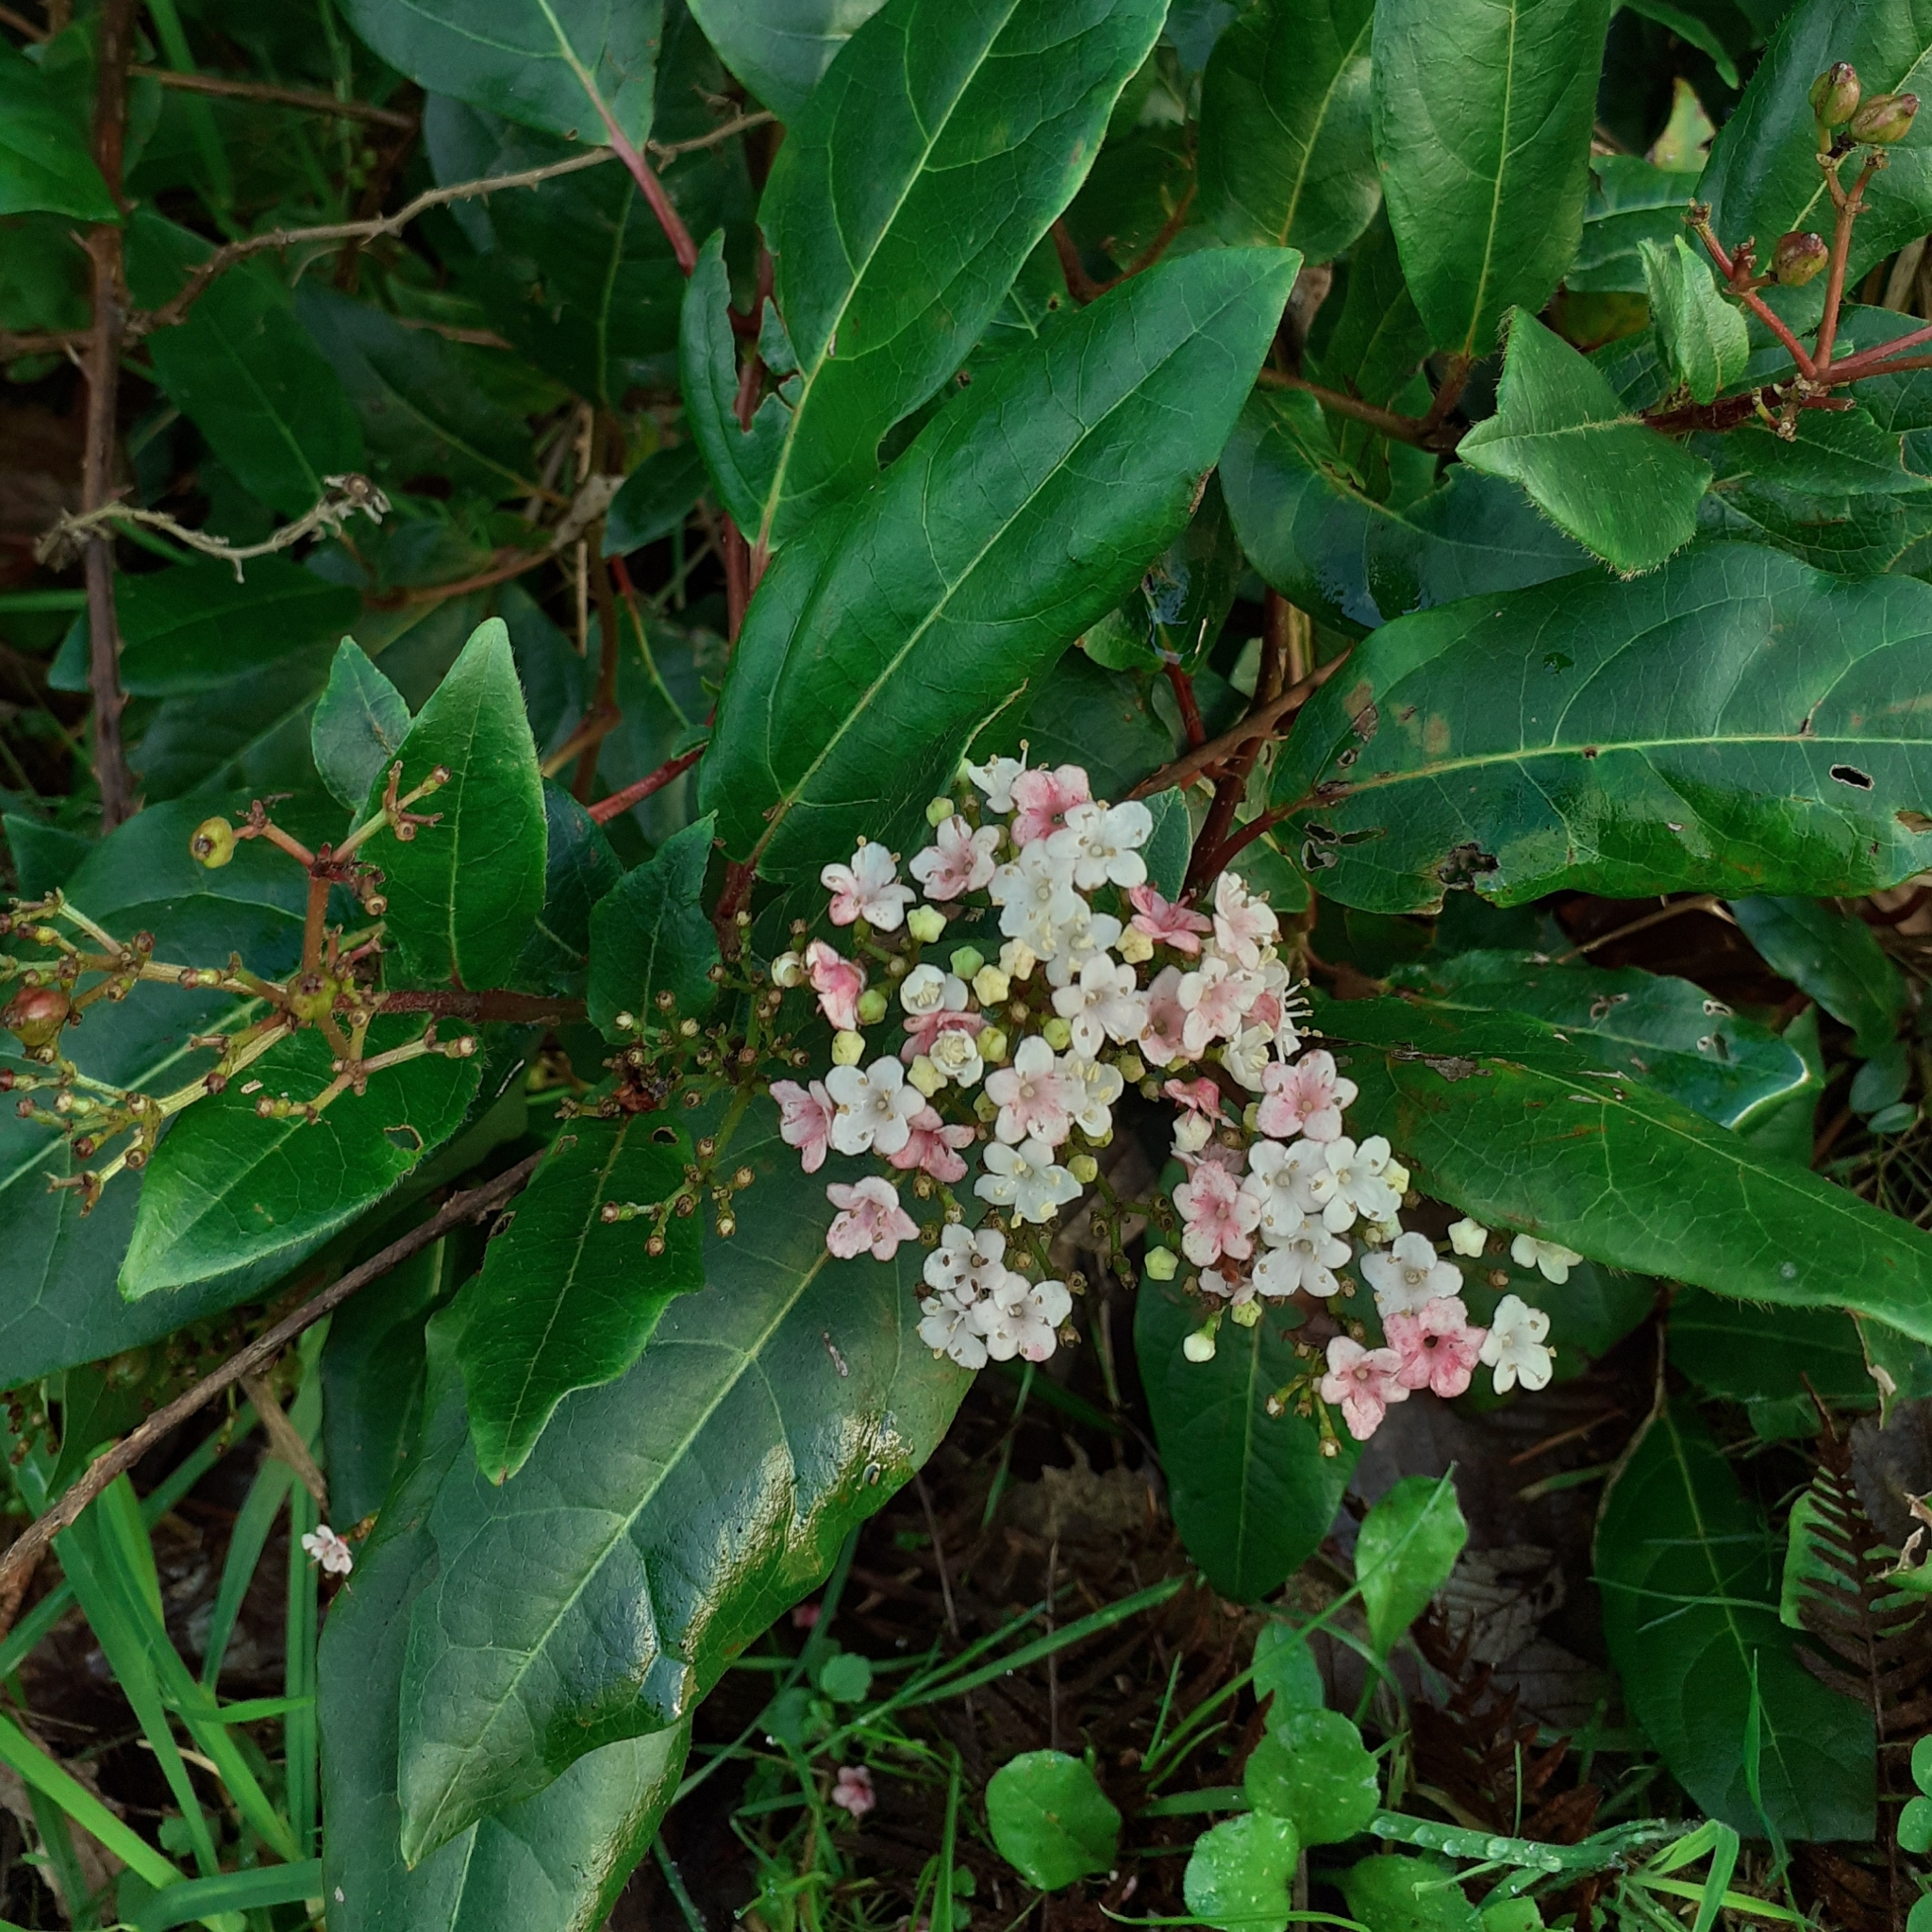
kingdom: Plantae
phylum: Tracheophyta
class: Magnoliopsida
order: Dipsacales
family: Viburnaceae
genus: Viburnum
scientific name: Viburnum tinus
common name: Laurustinus
